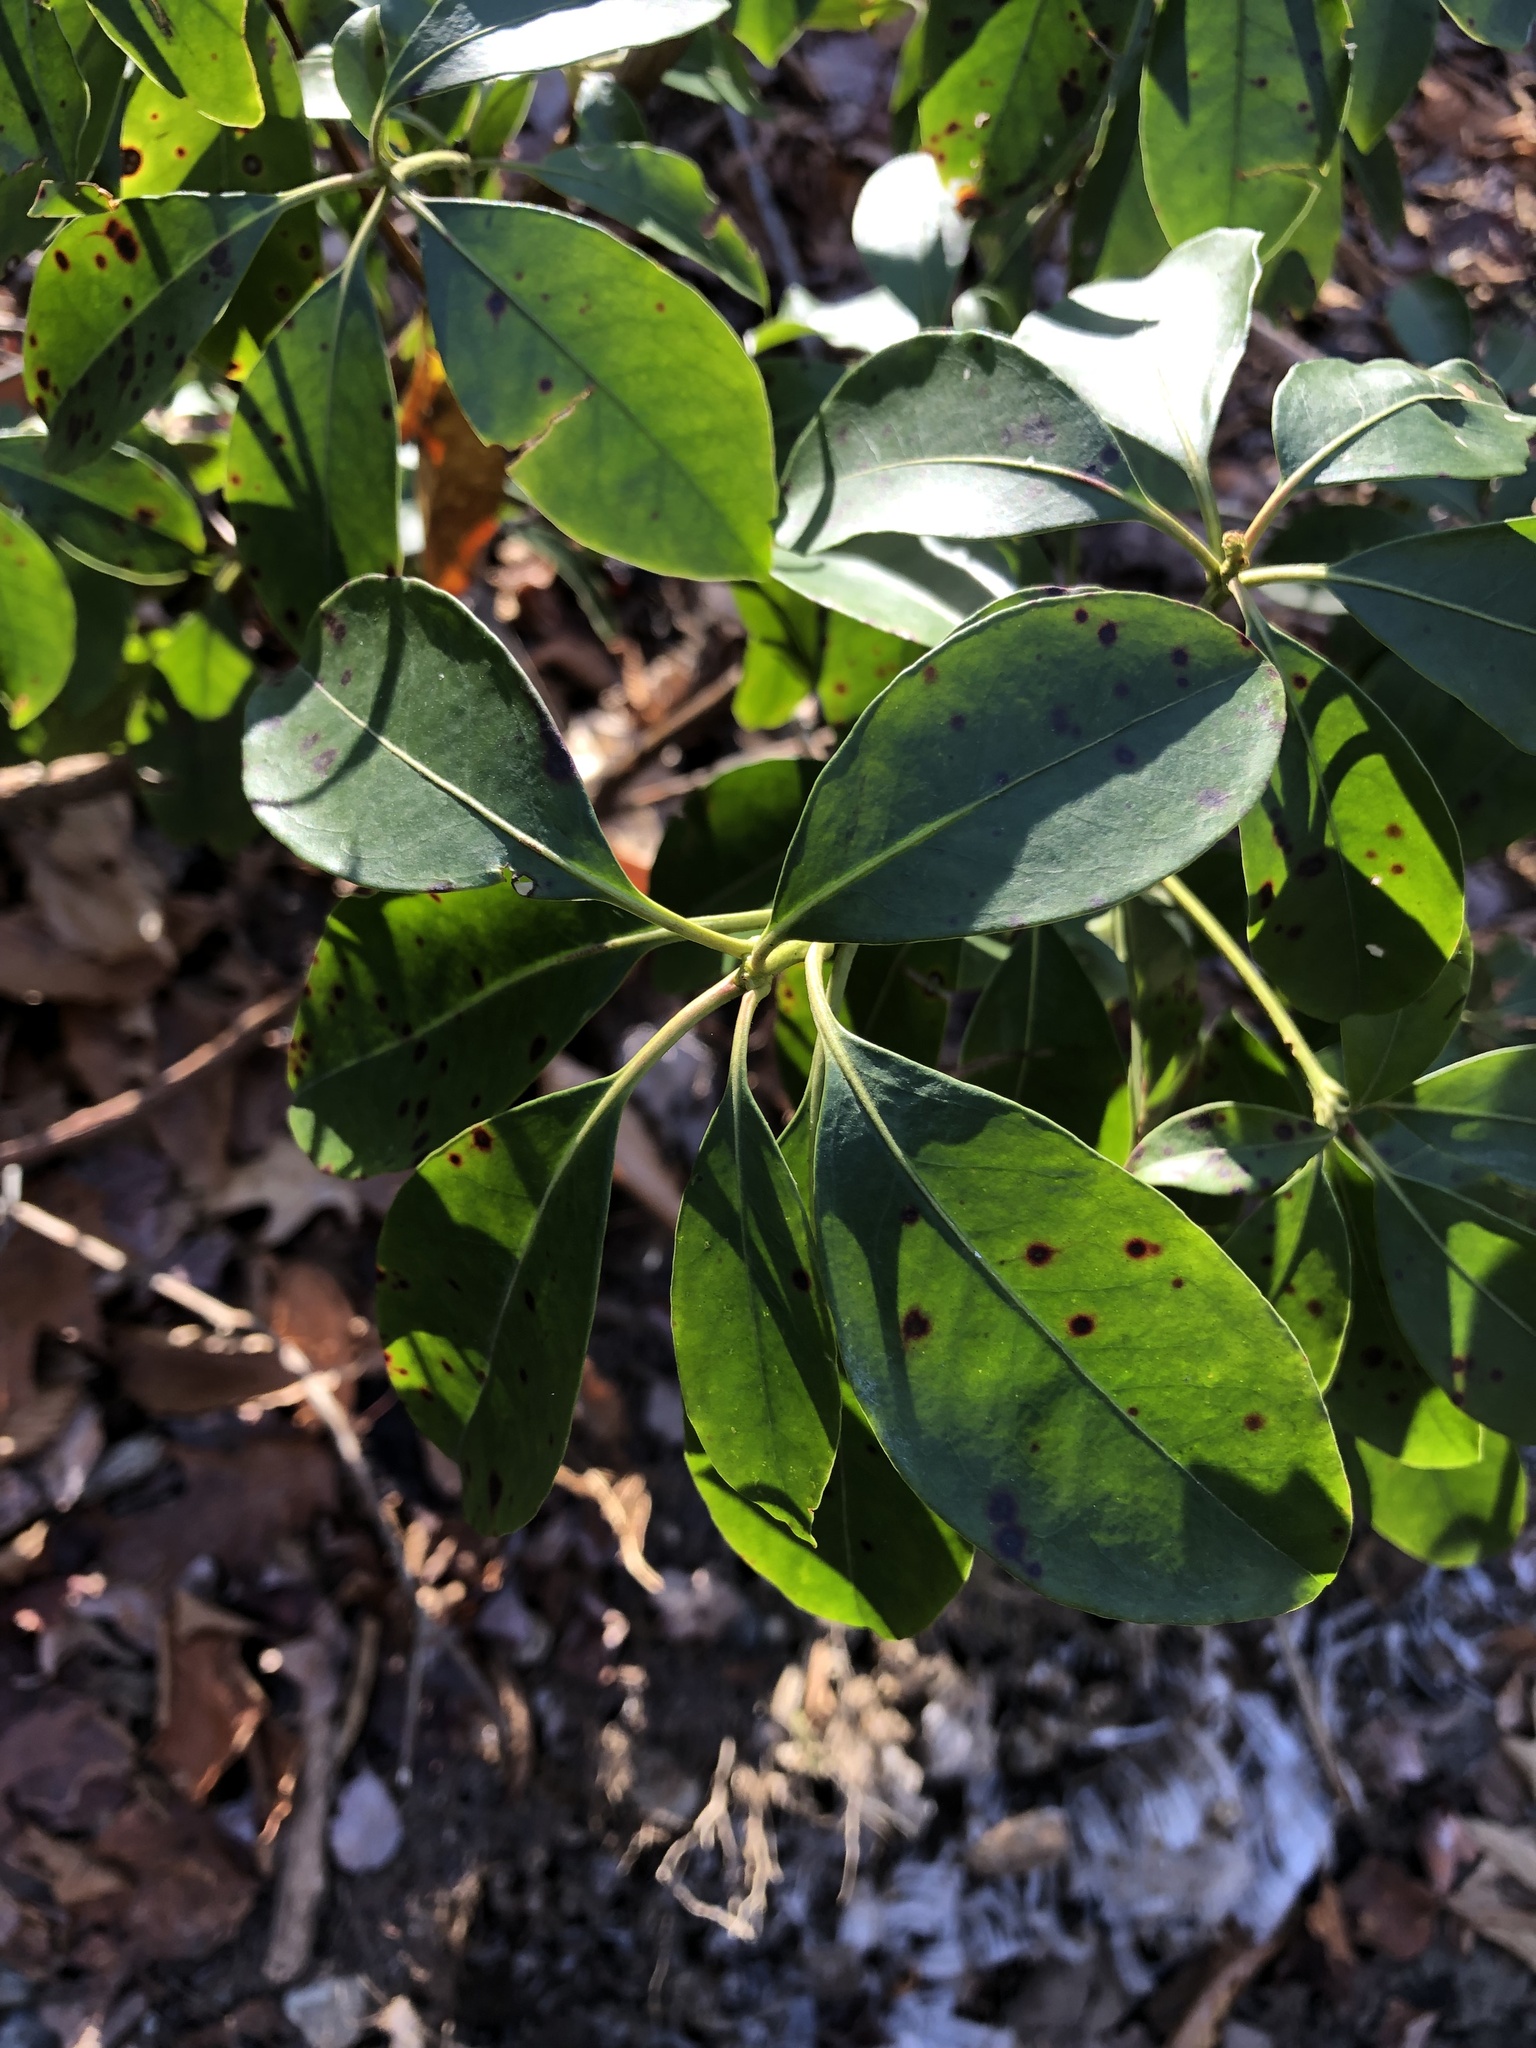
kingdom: Plantae
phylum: Tracheophyta
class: Magnoliopsida
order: Ericales
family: Ericaceae
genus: Kalmia
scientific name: Kalmia latifolia
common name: Mountain-laurel
